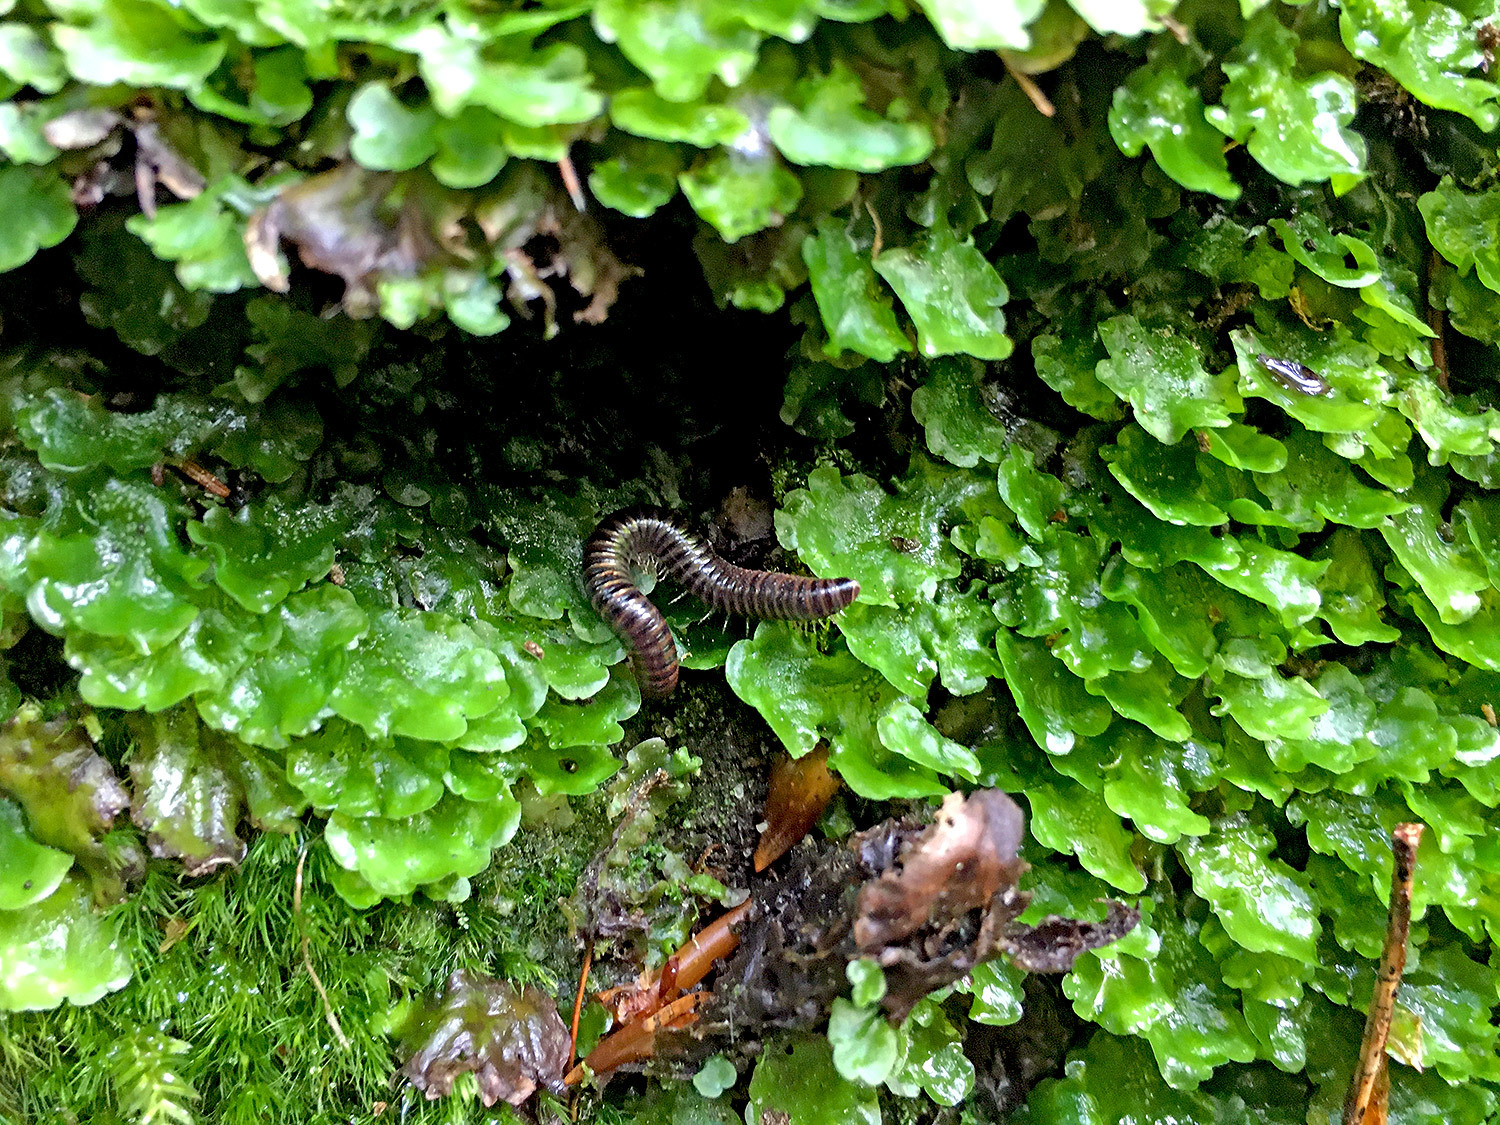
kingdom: Animalia
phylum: Arthropoda
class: Diplopoda
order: Julida
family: Julidae
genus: Cylindroiulus
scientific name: Cylindroiulus caeruleocinctus
